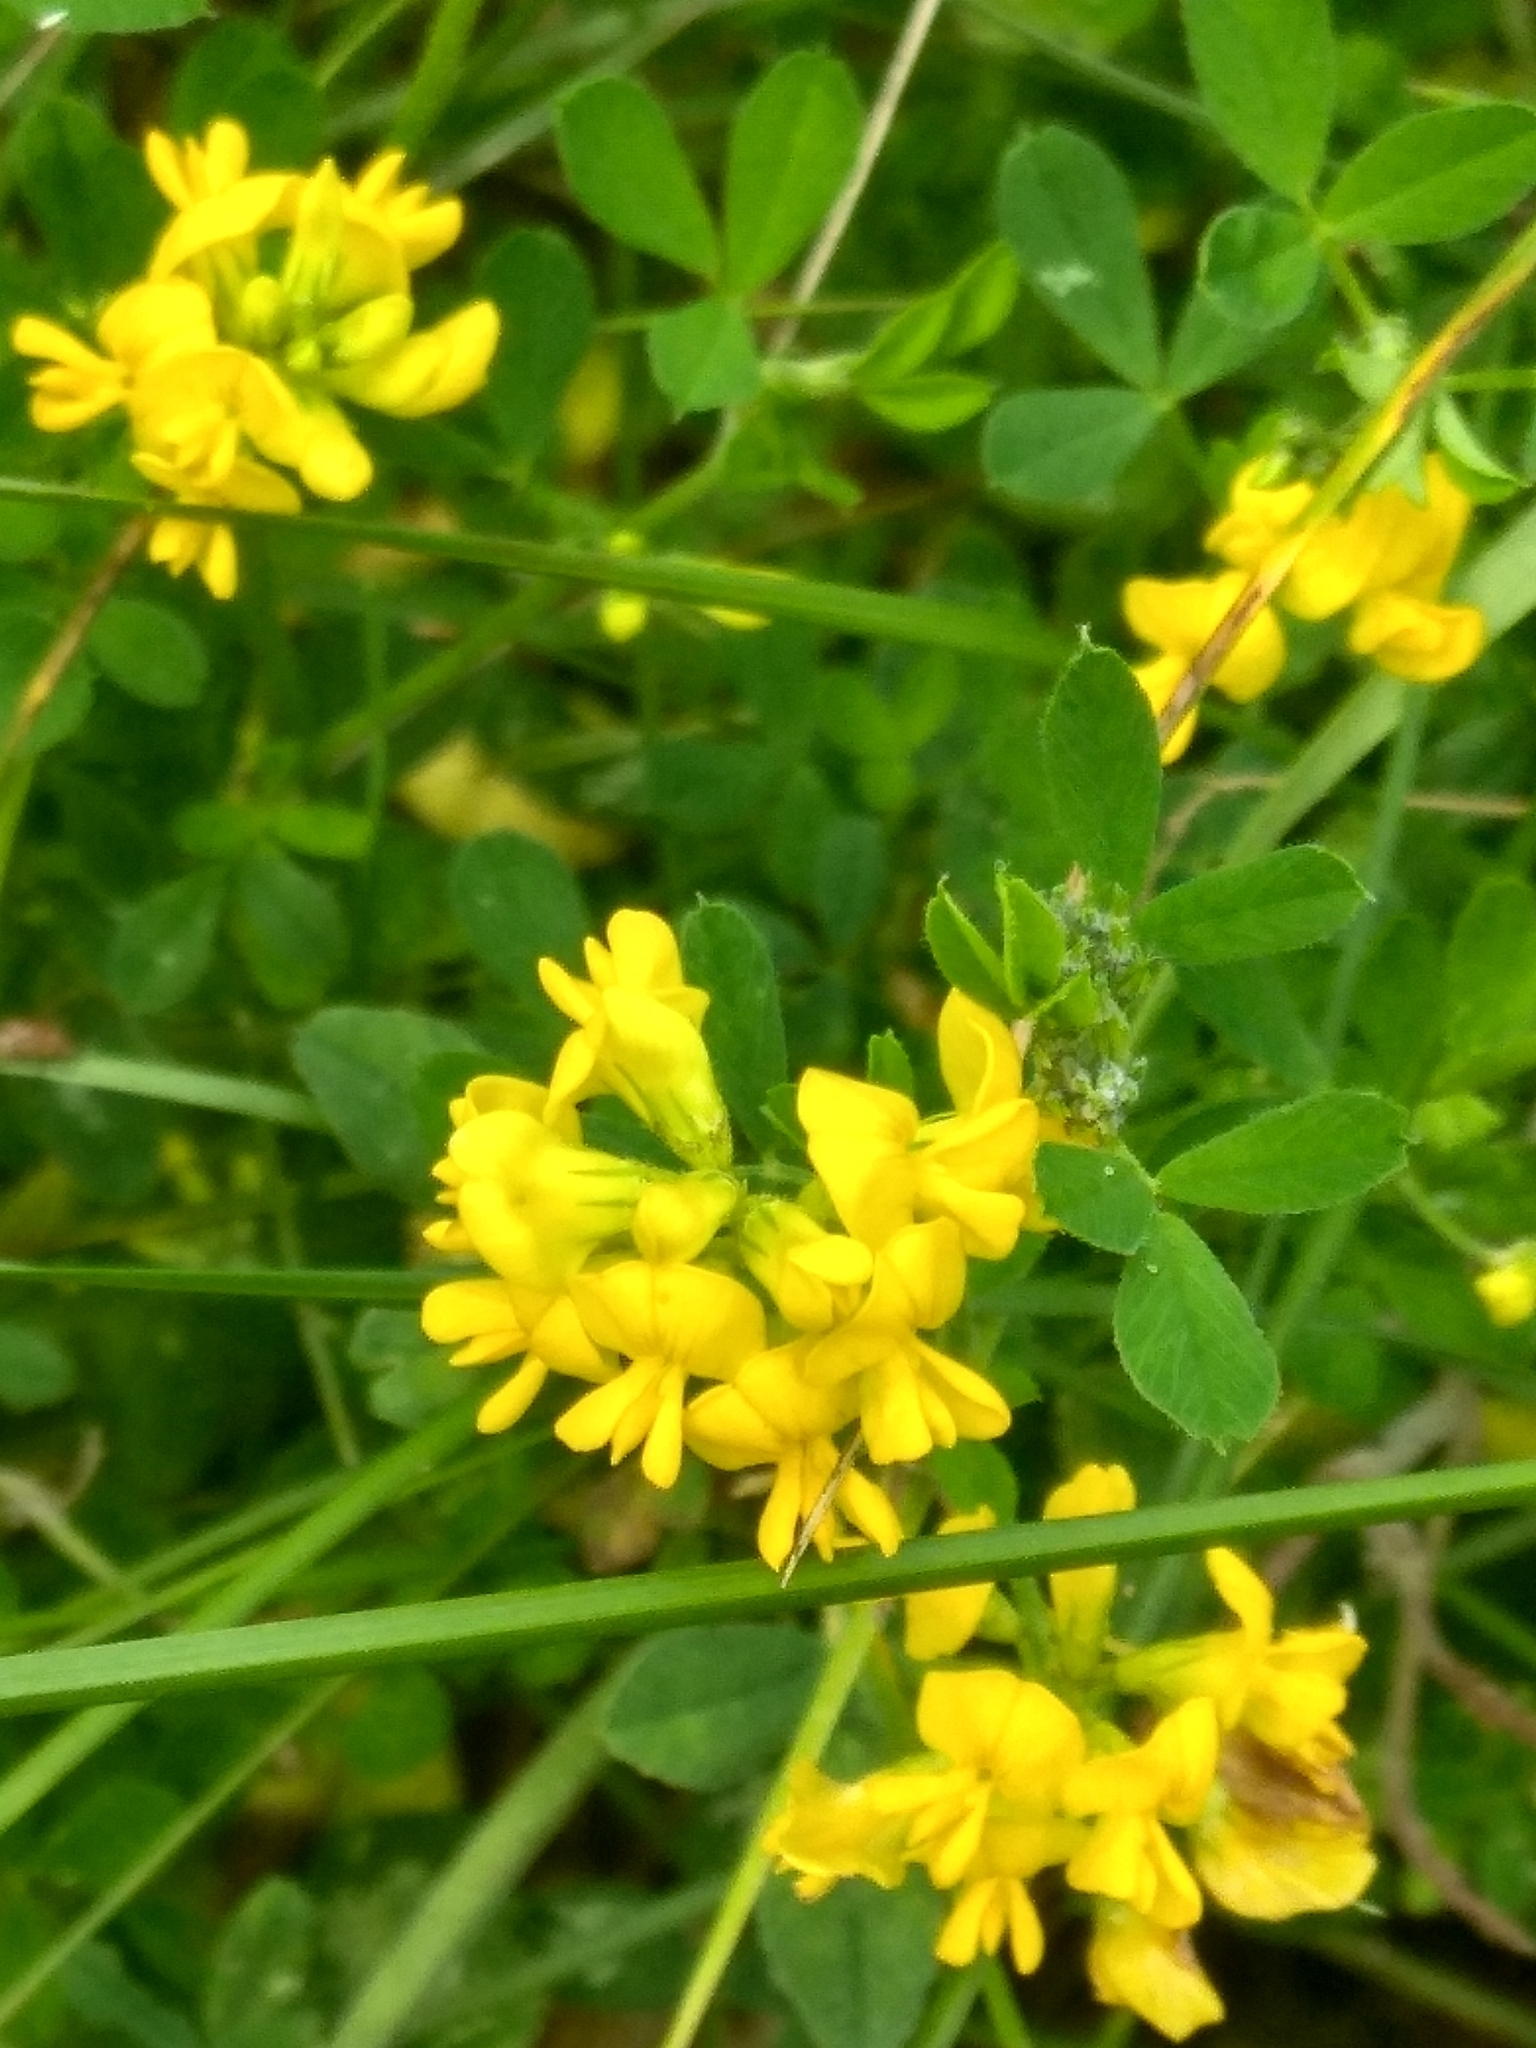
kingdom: Plantae
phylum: Tracheophyta
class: Magnoliopsida
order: Fabales
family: Fabaceae
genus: Medicago
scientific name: Medicago falcata
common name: Sickle medick
